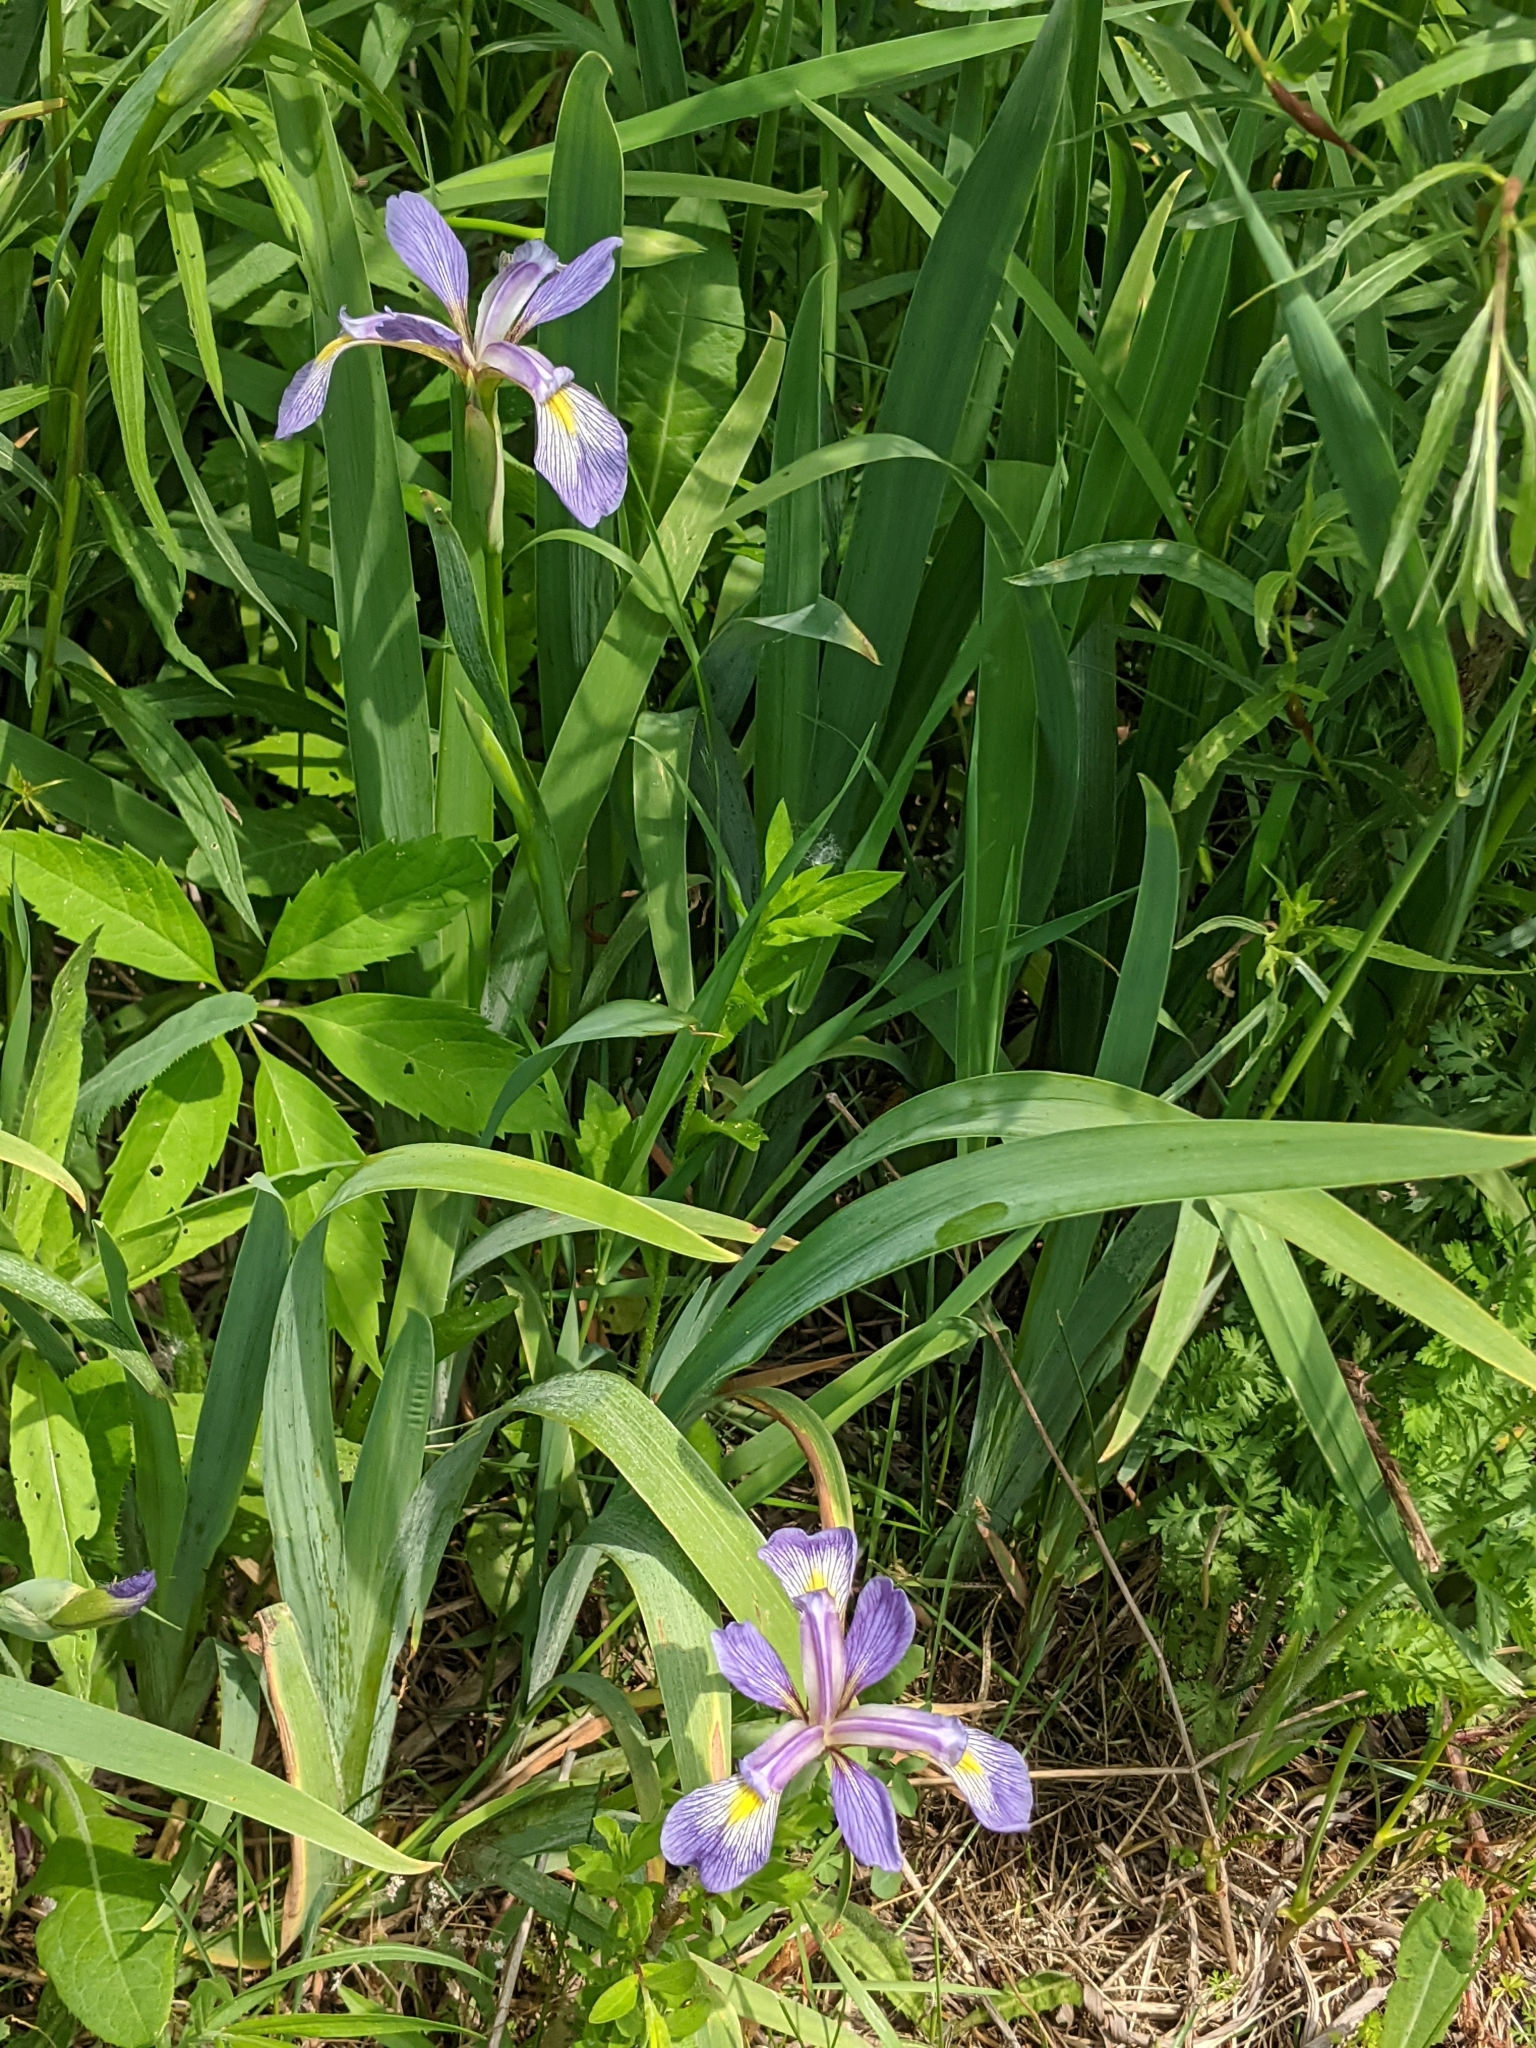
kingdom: Plantae
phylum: Tracheophyta
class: Liliopsida
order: Asparagales
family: Iridaceae
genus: Iris
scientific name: Iris virginica
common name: Southern blue flag
